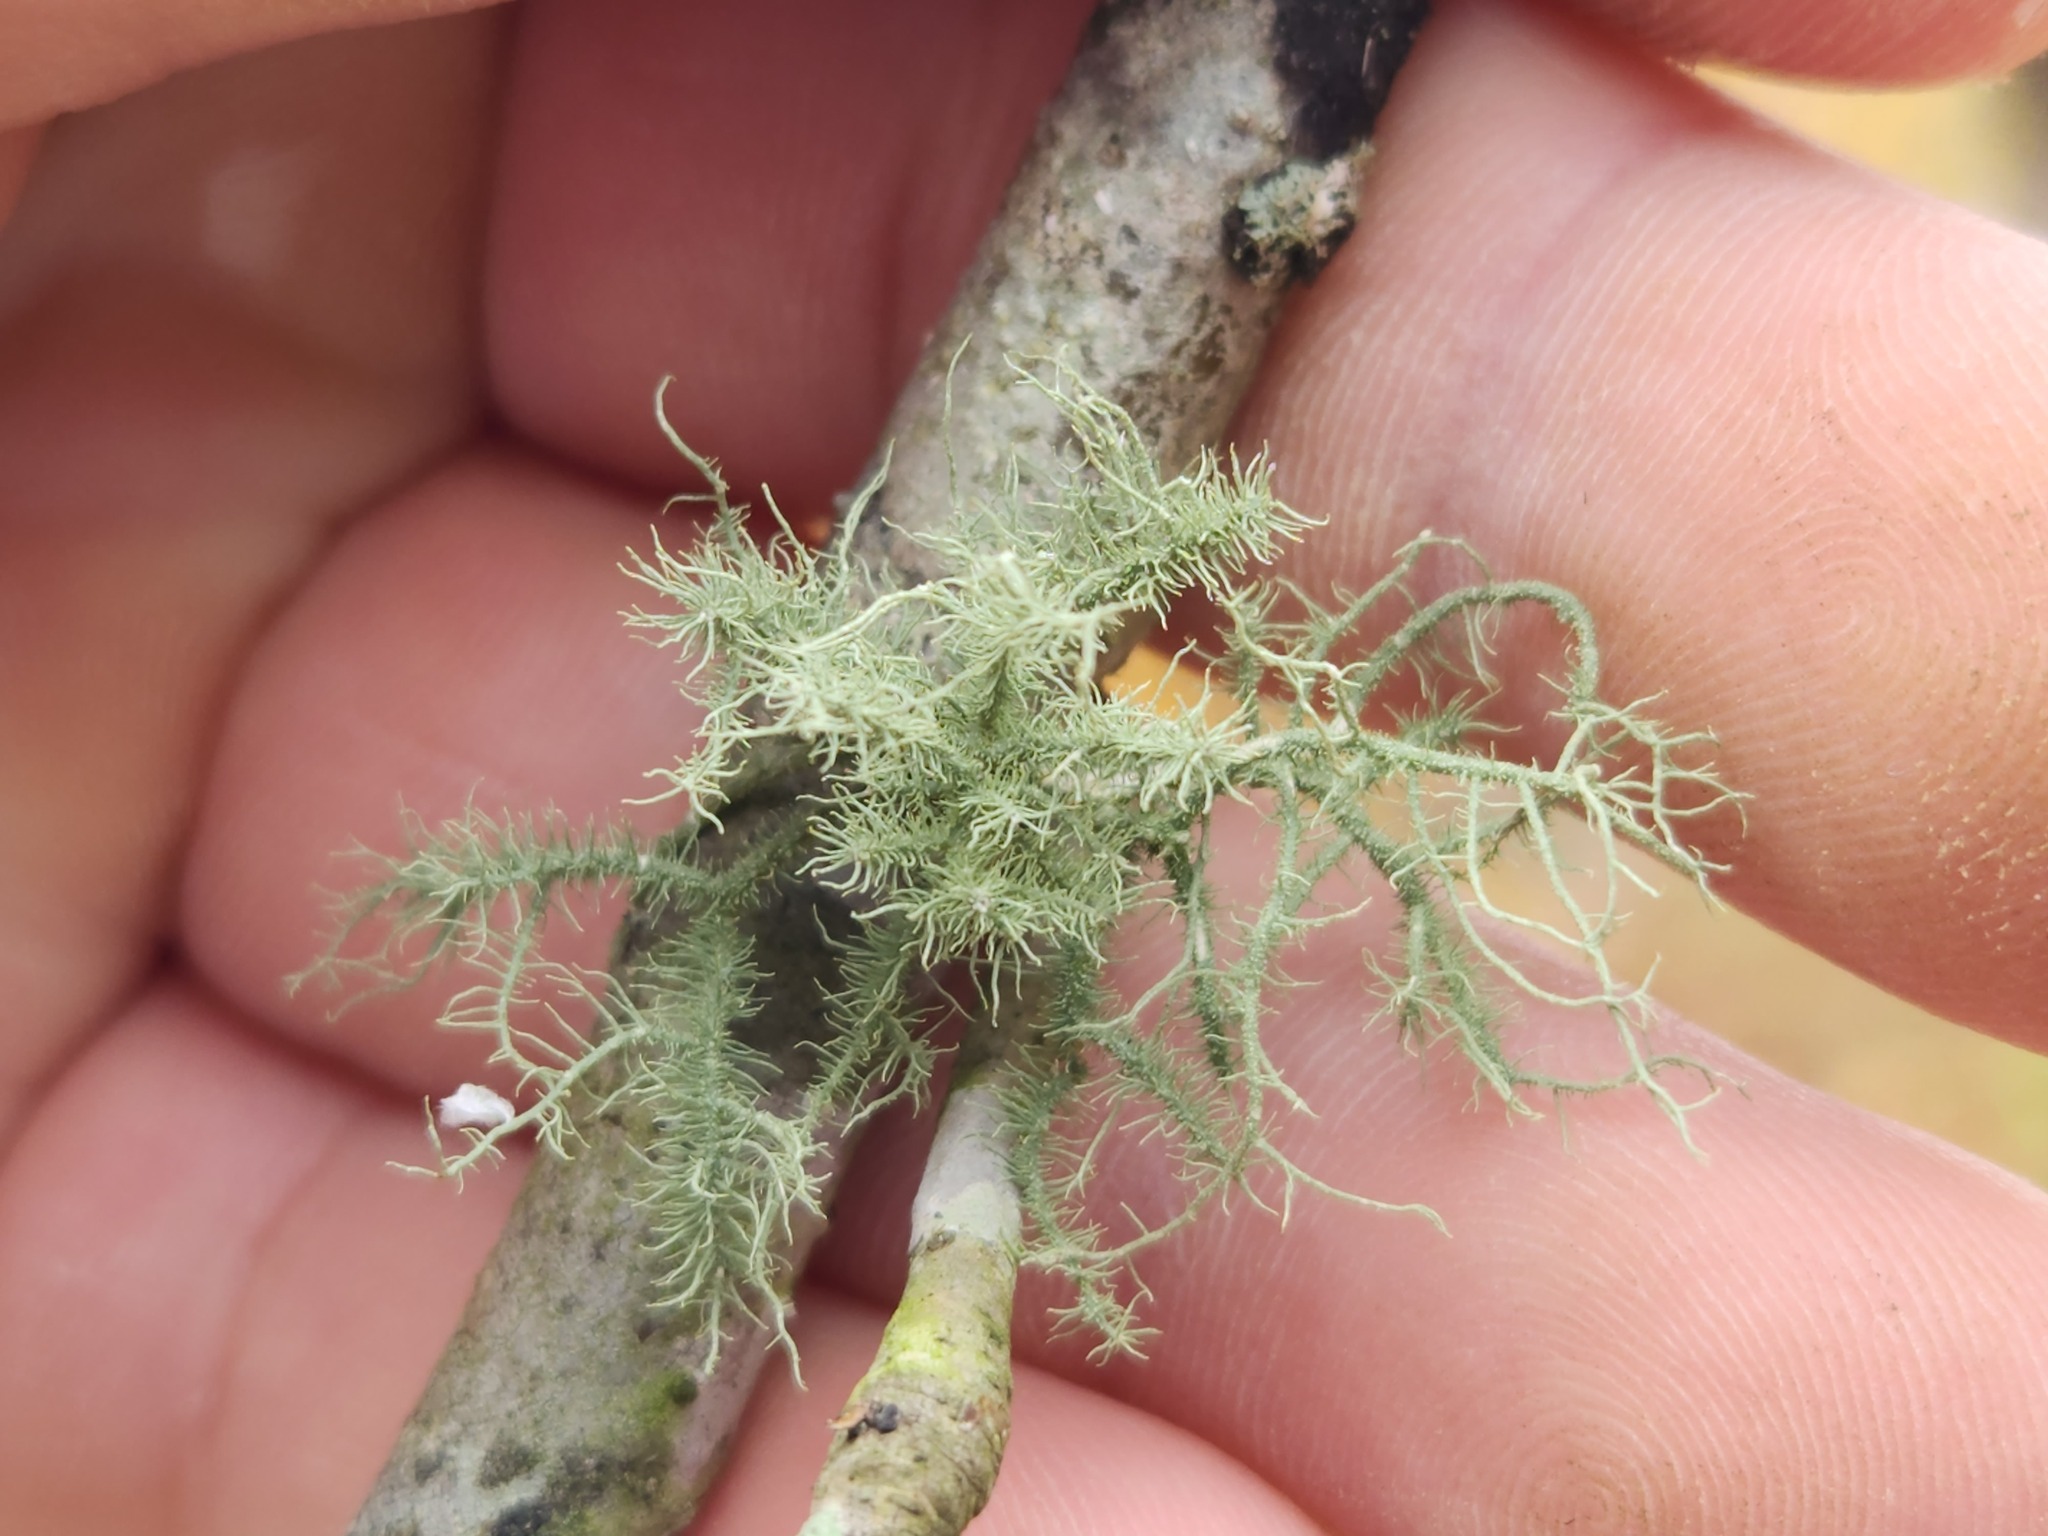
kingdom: Fungi
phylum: Ascomycota
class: Lecanoromycetes
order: Lecanorales
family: Parmeliaceae
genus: Usnea
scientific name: Usnea strigosa
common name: Bushy beard lichen
